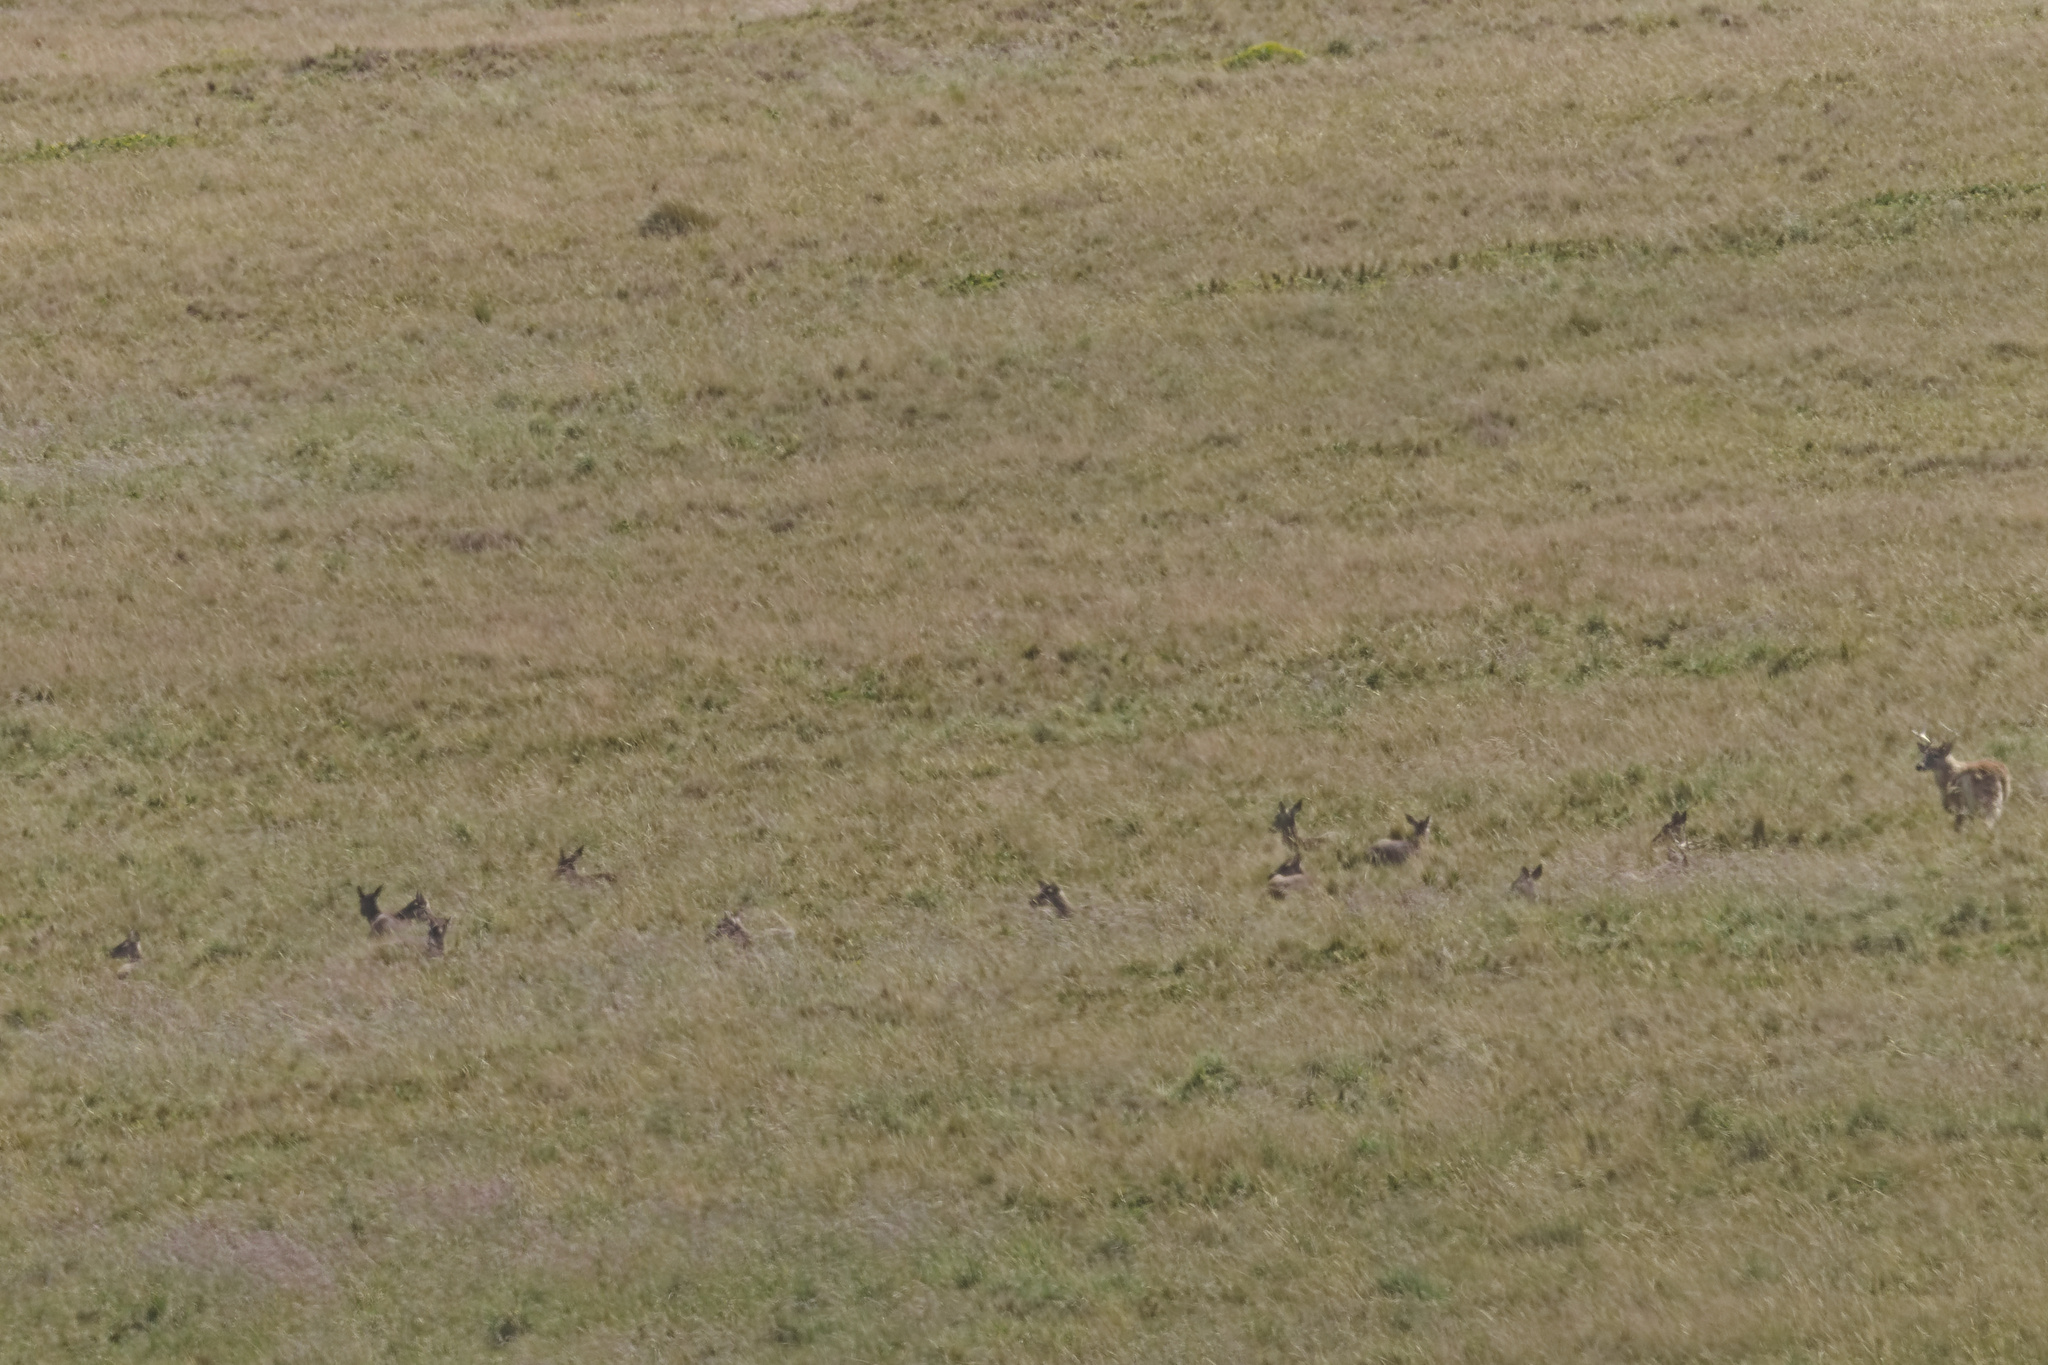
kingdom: Animalia
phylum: Chordata
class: Mammalia
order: Artiodactyla
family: Cervidae
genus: Odocoileus
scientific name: Odocoileus virginianus
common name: White-tailed deer
